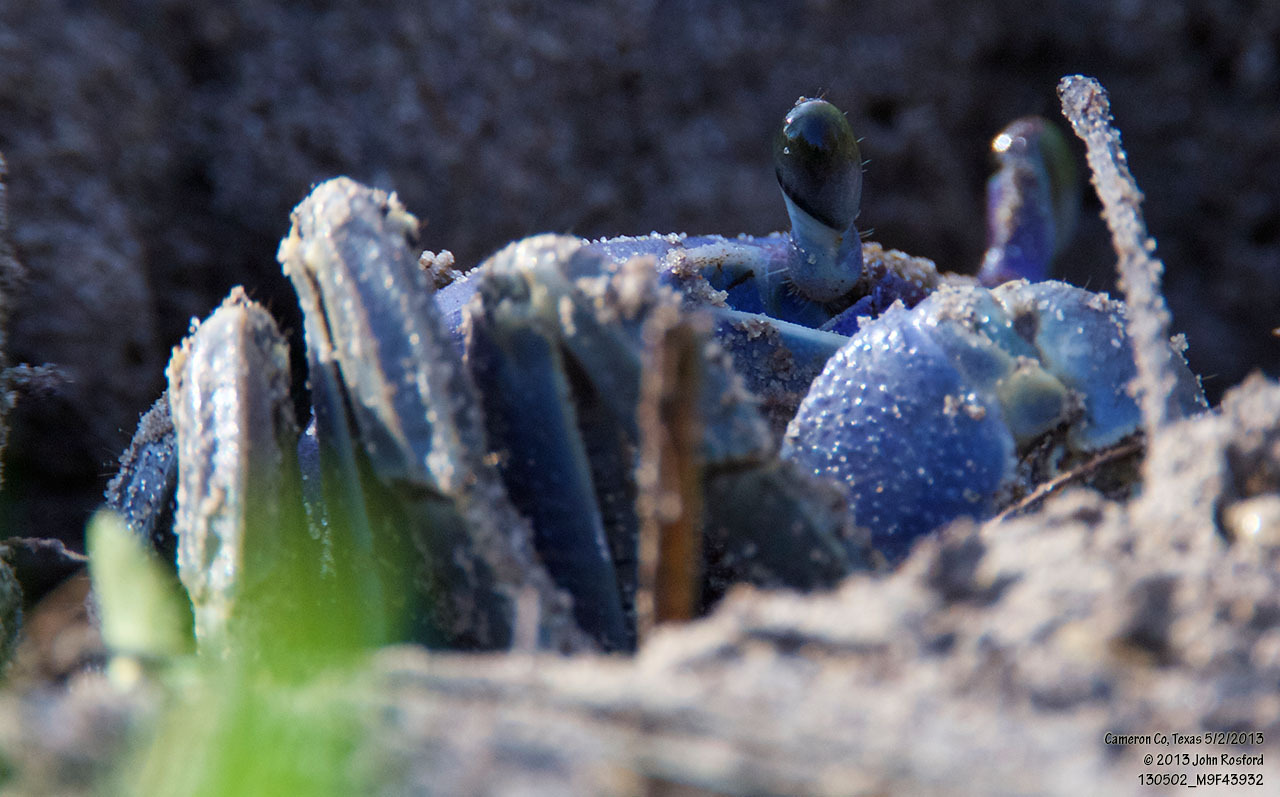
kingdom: Animalia
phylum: Arthropoda
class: Malacostraca
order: Decapoda
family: Gecarcinidae
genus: Cardisoma
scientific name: Cardisoma guanhumi
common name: Great land crab
